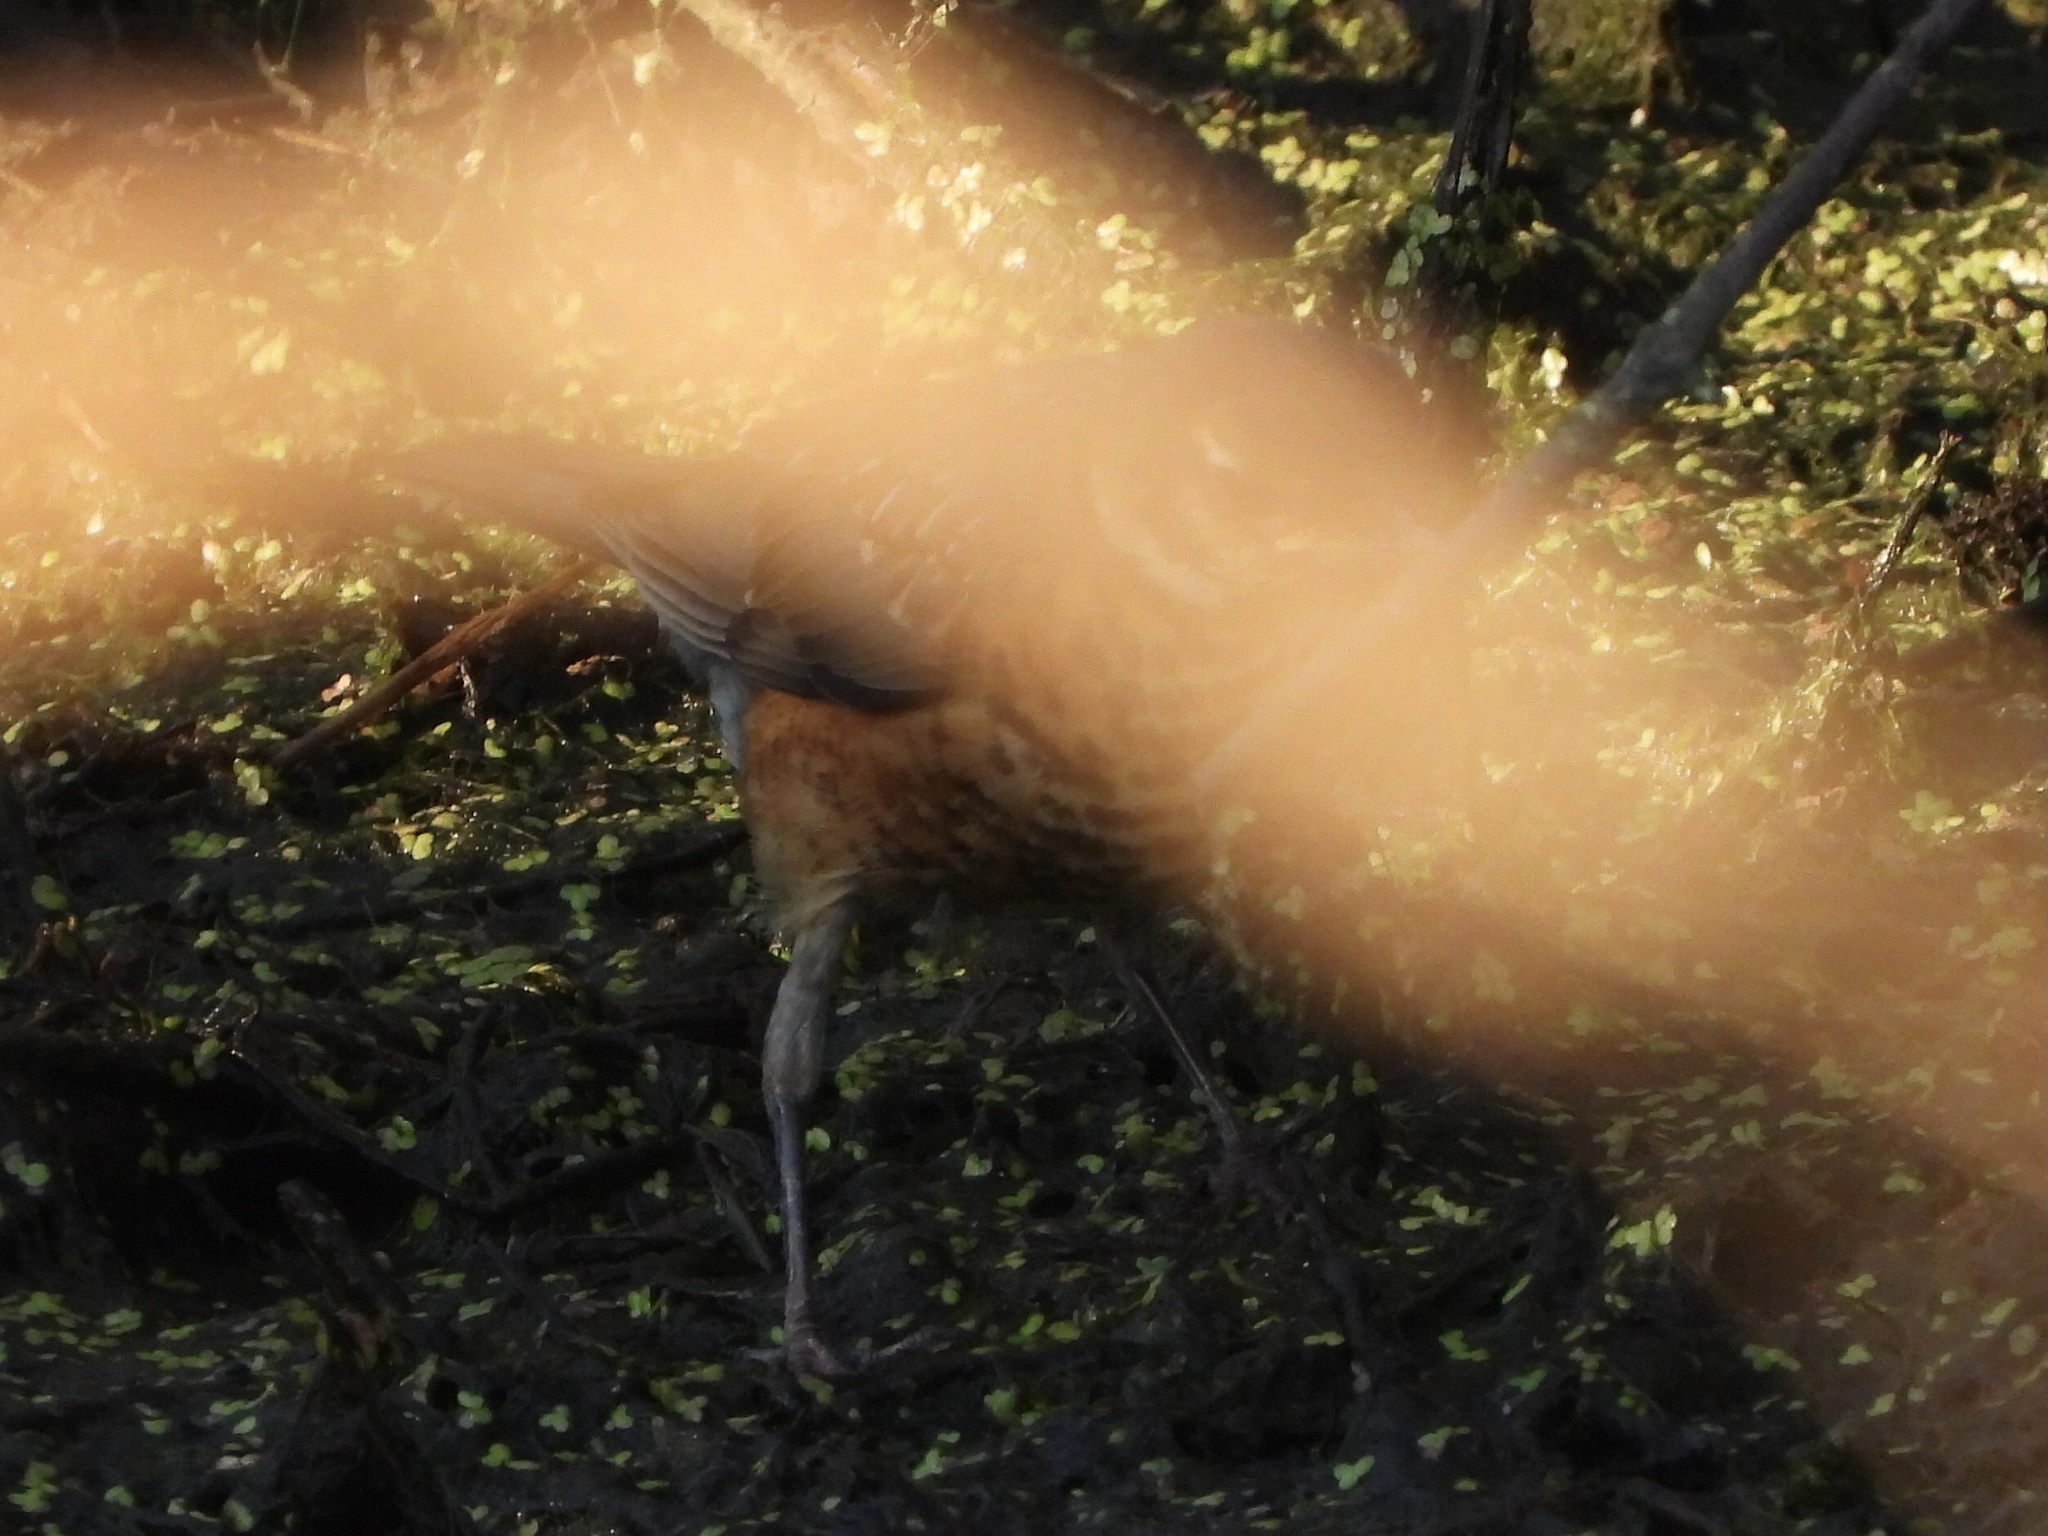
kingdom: Animalia
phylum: Chordata
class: Aves
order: Passeriformes
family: Turdidae
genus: Turdus
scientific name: Turdus migratorius
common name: American robin
